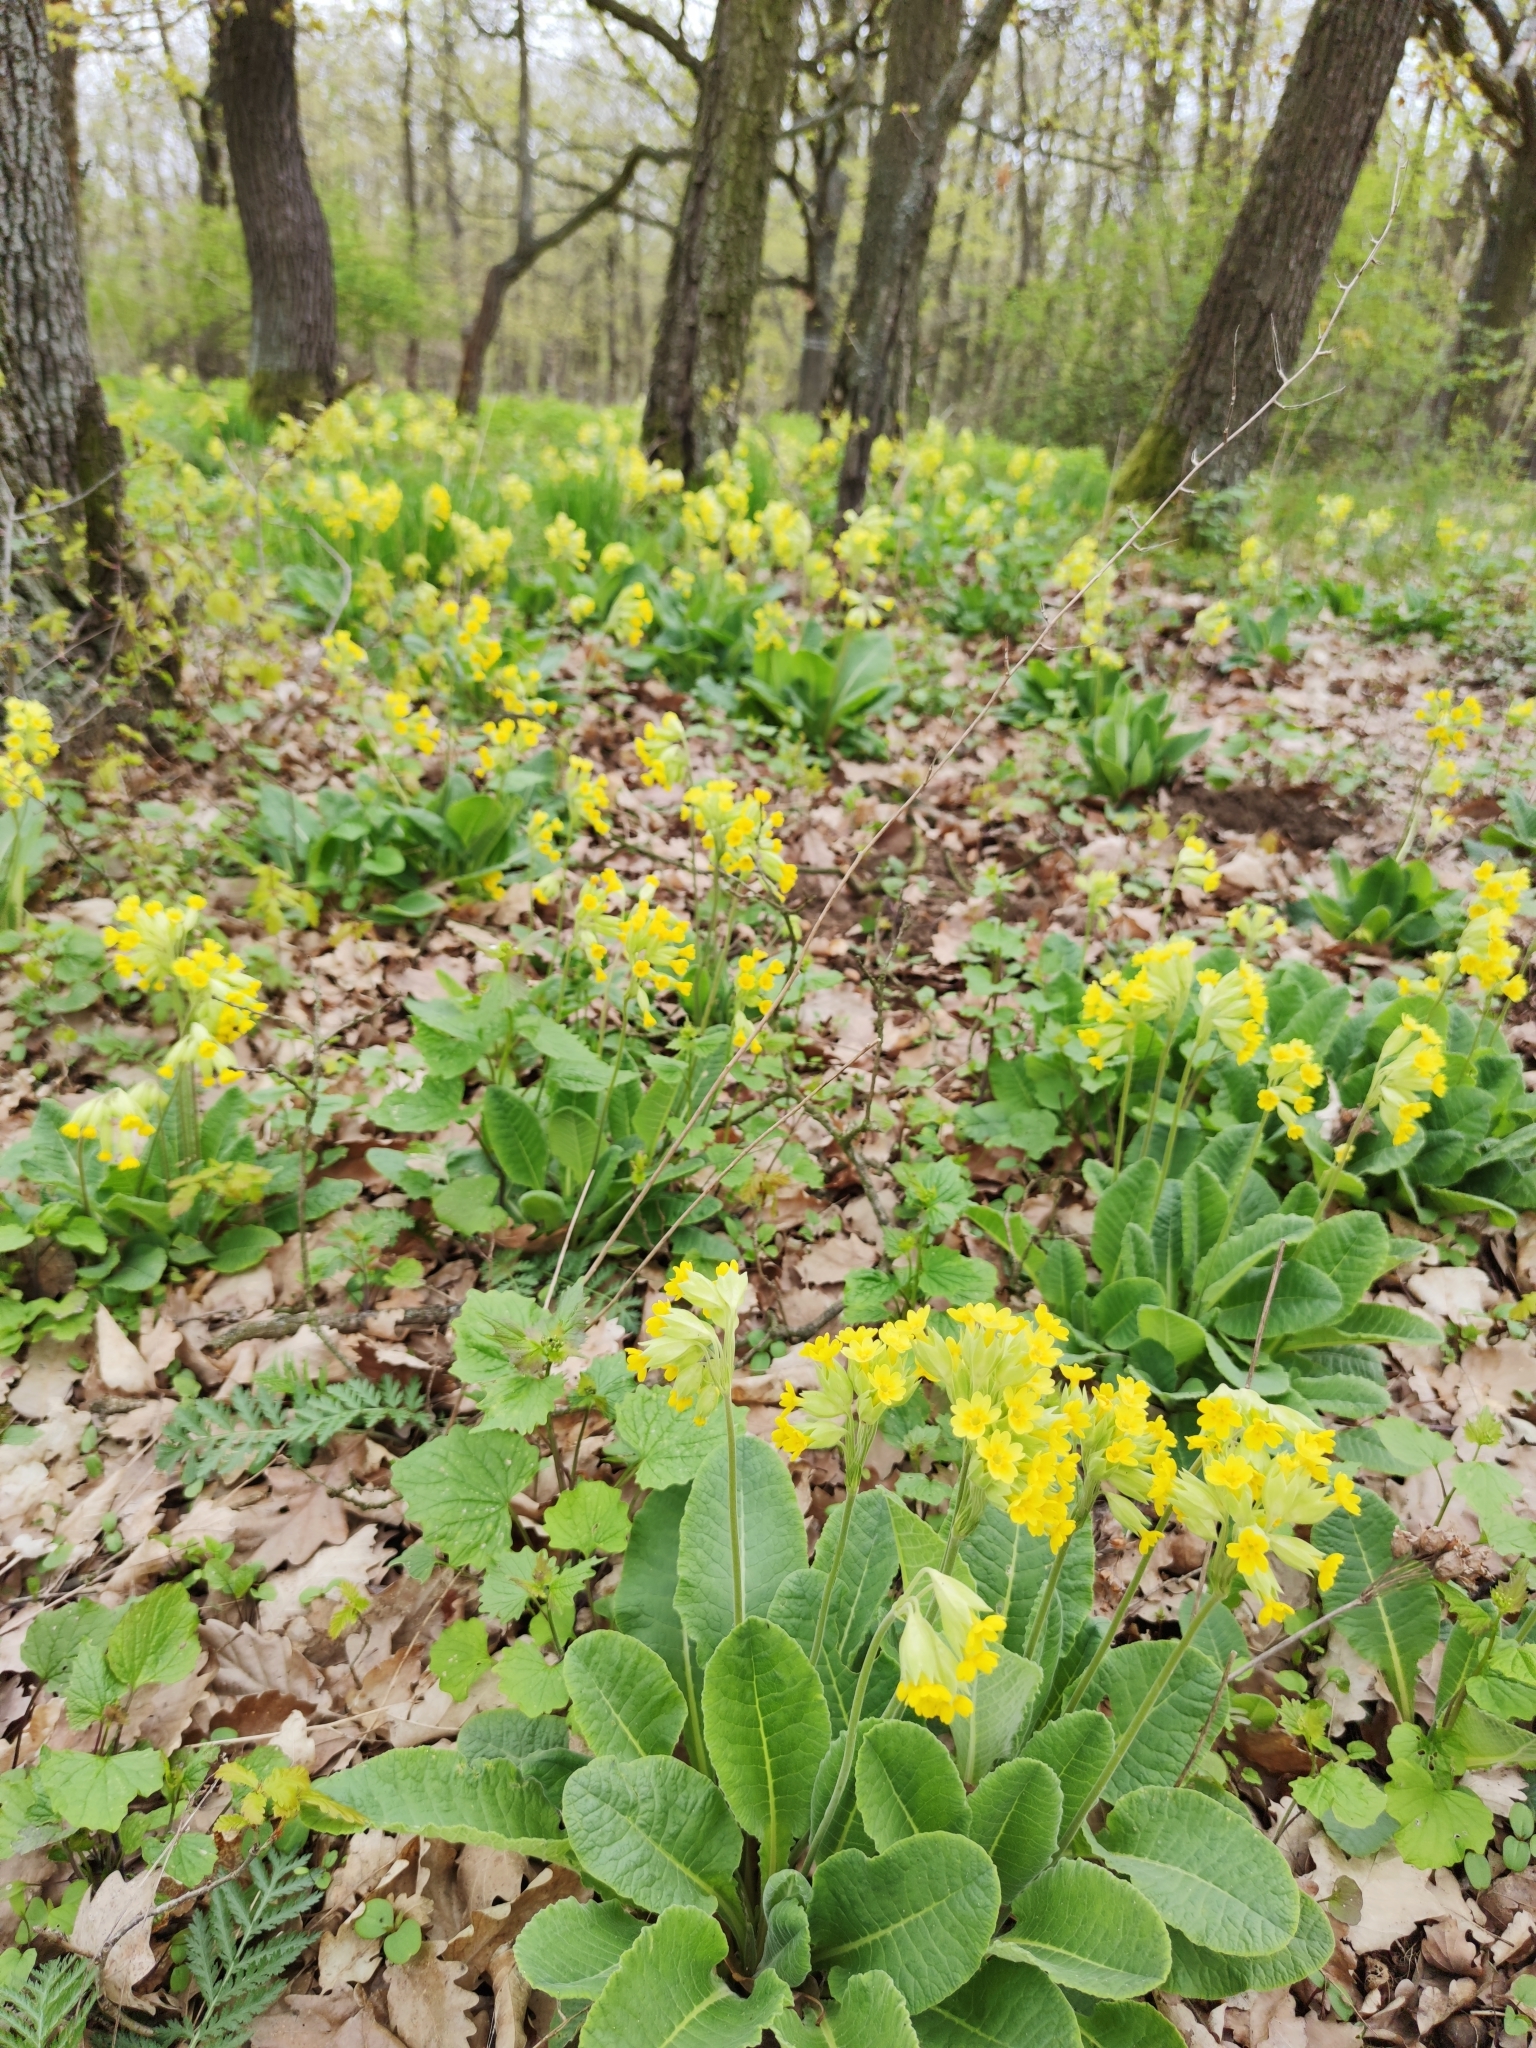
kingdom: Plantae
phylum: Tracheophyta
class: Magnoliopsida
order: Ericales
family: Primulaceae
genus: Primula
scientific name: Primula veris
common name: Cowslip
